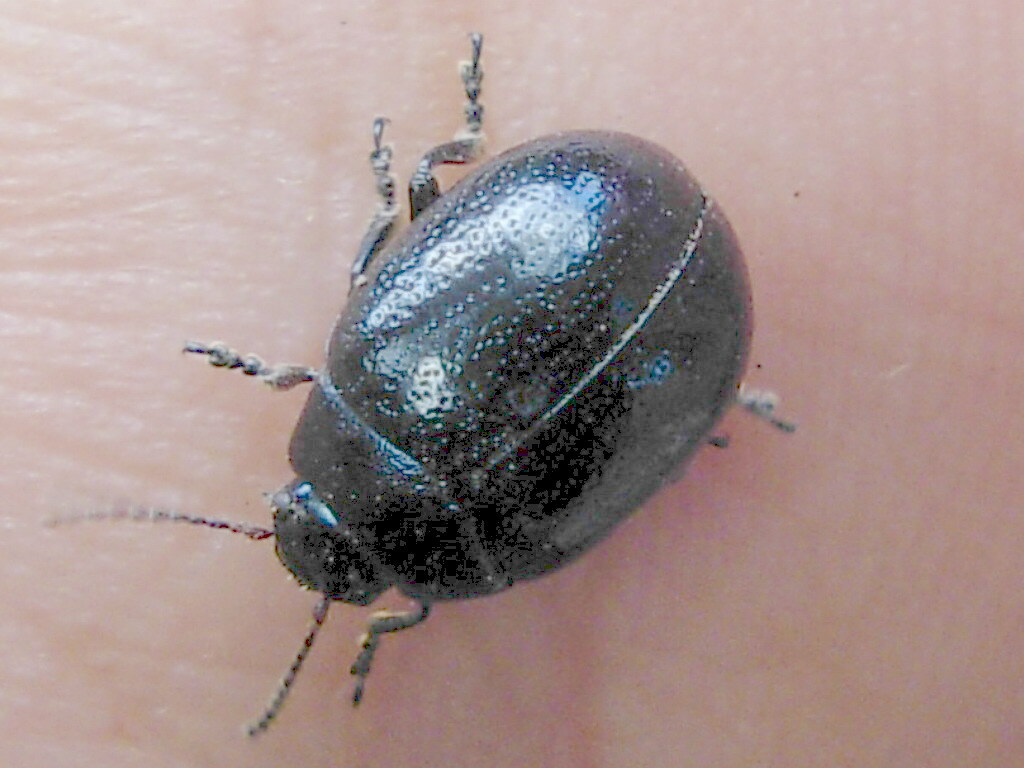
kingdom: Animalia
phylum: Arthropoda
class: Insecta
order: Coleoptera
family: Chrysomelidae
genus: Chrysolina
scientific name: Chrysolina haemoptera
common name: Plantain leaf beetle
